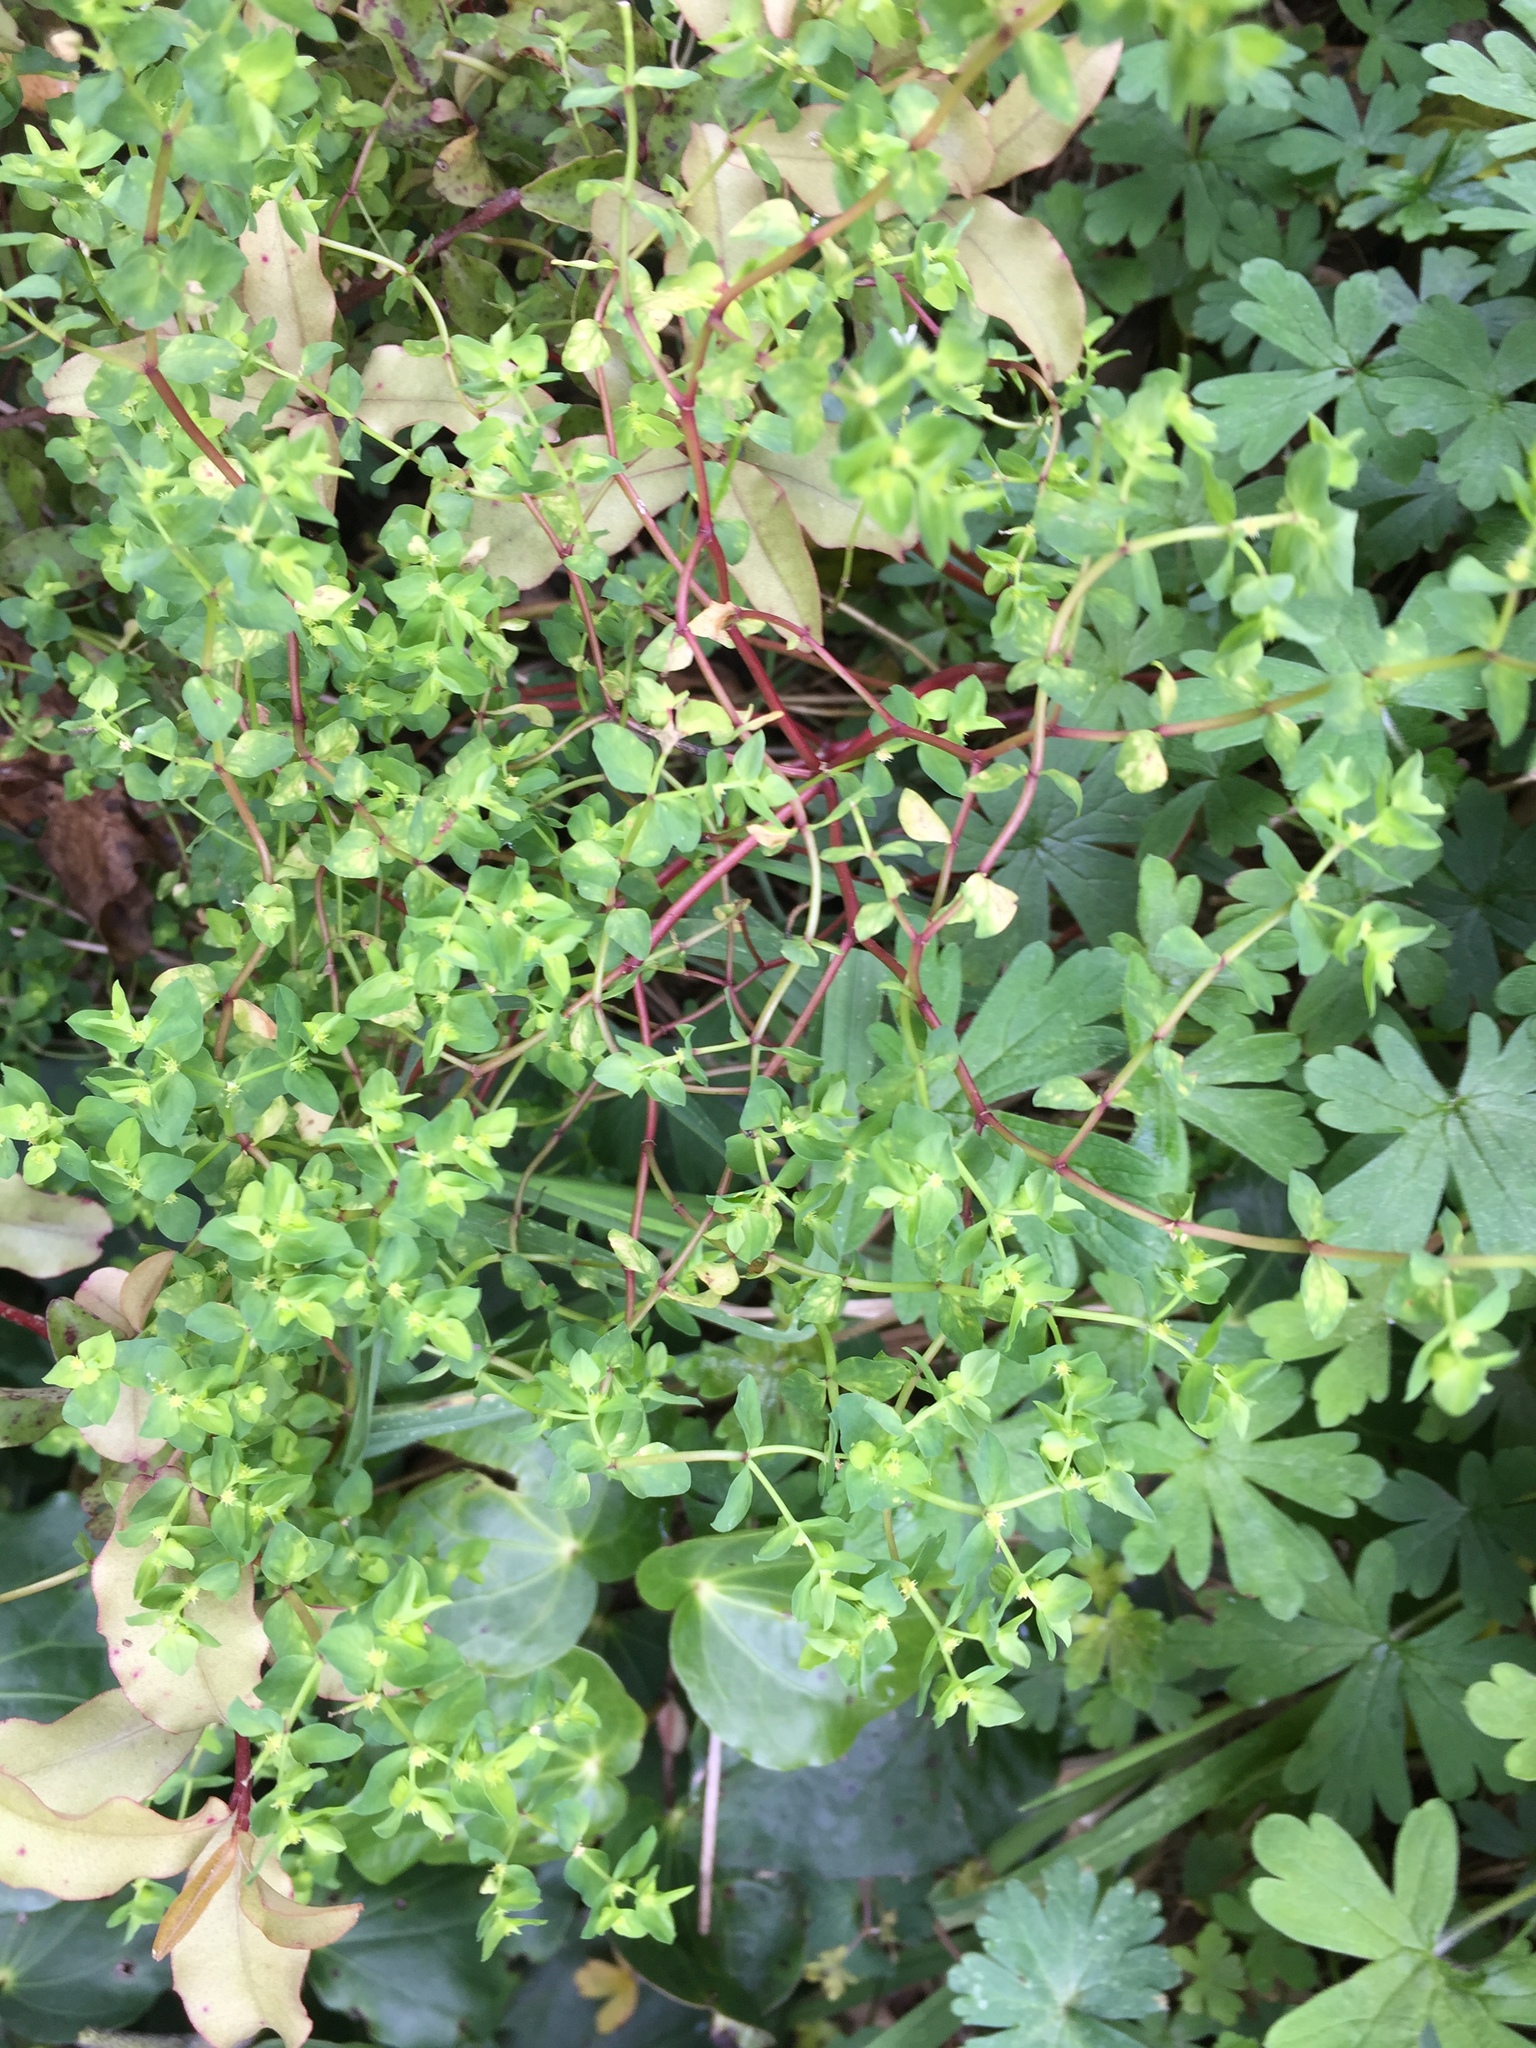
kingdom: Plantae
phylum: Tracheophyta
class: Magnoliopsida
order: Malpighiales
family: Euphorbiaceae
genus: Euphorbia
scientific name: Euphorbia peplus
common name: Petty spurge
